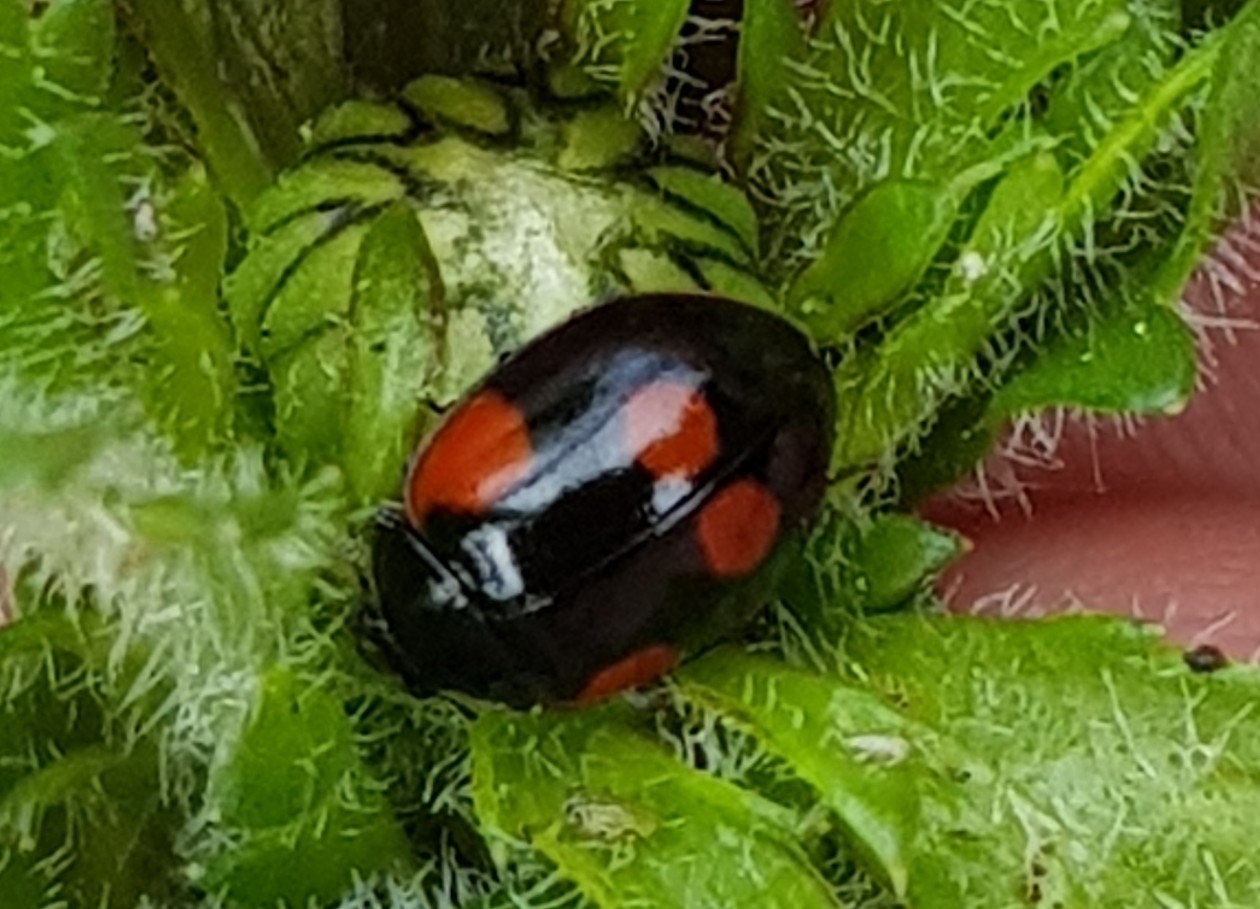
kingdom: Animalia
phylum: Arthropoda
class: Insecta
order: Coleoptera
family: Coccinellidae
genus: Adalia
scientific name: Adalia bipunctata
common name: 2-spot ladybird
